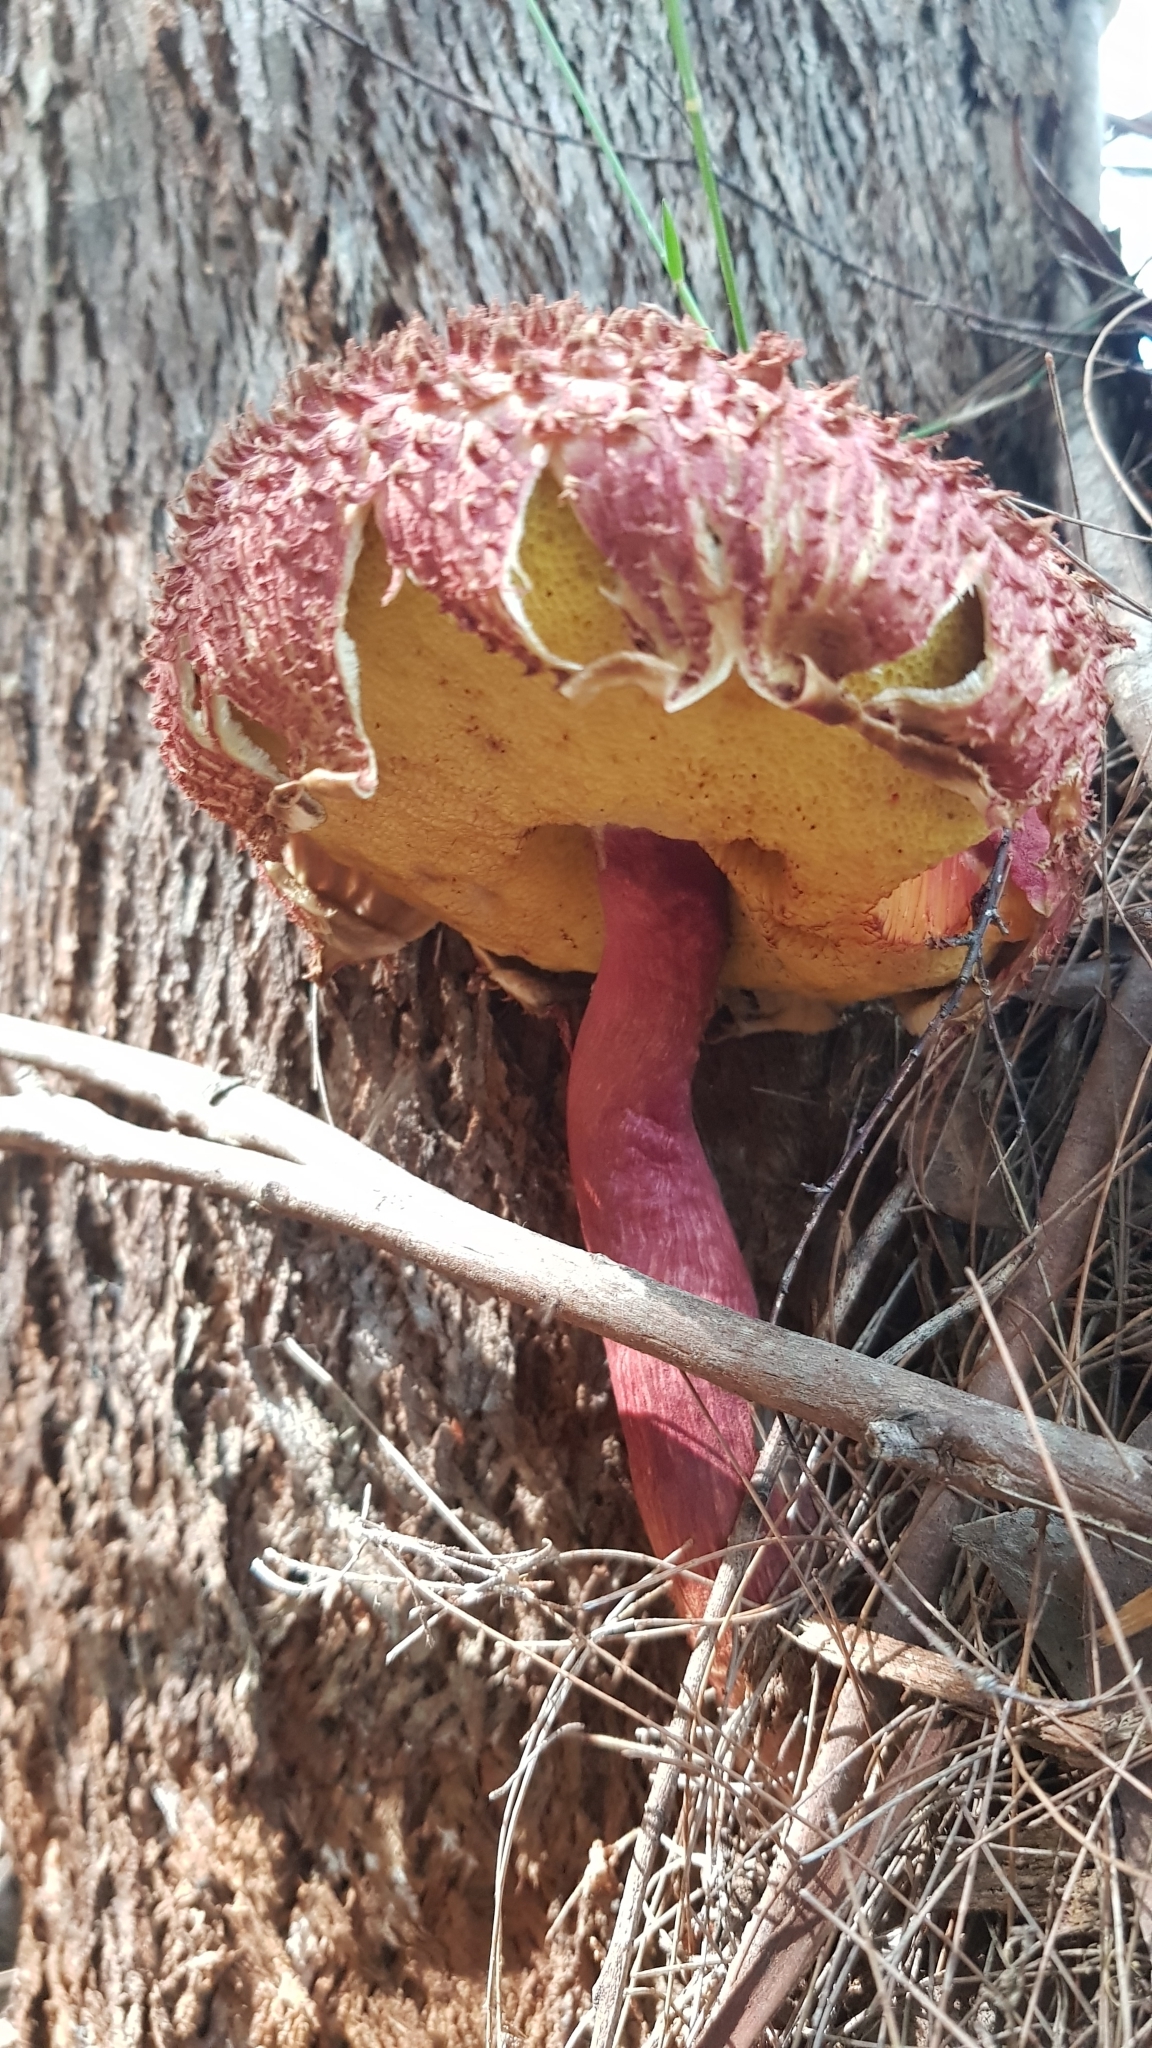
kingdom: Fungi
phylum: Basidiomycota
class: Agaricomycetes
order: Boletales
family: Boletaceae
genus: Boletellus
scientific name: Boletellus emodensis
